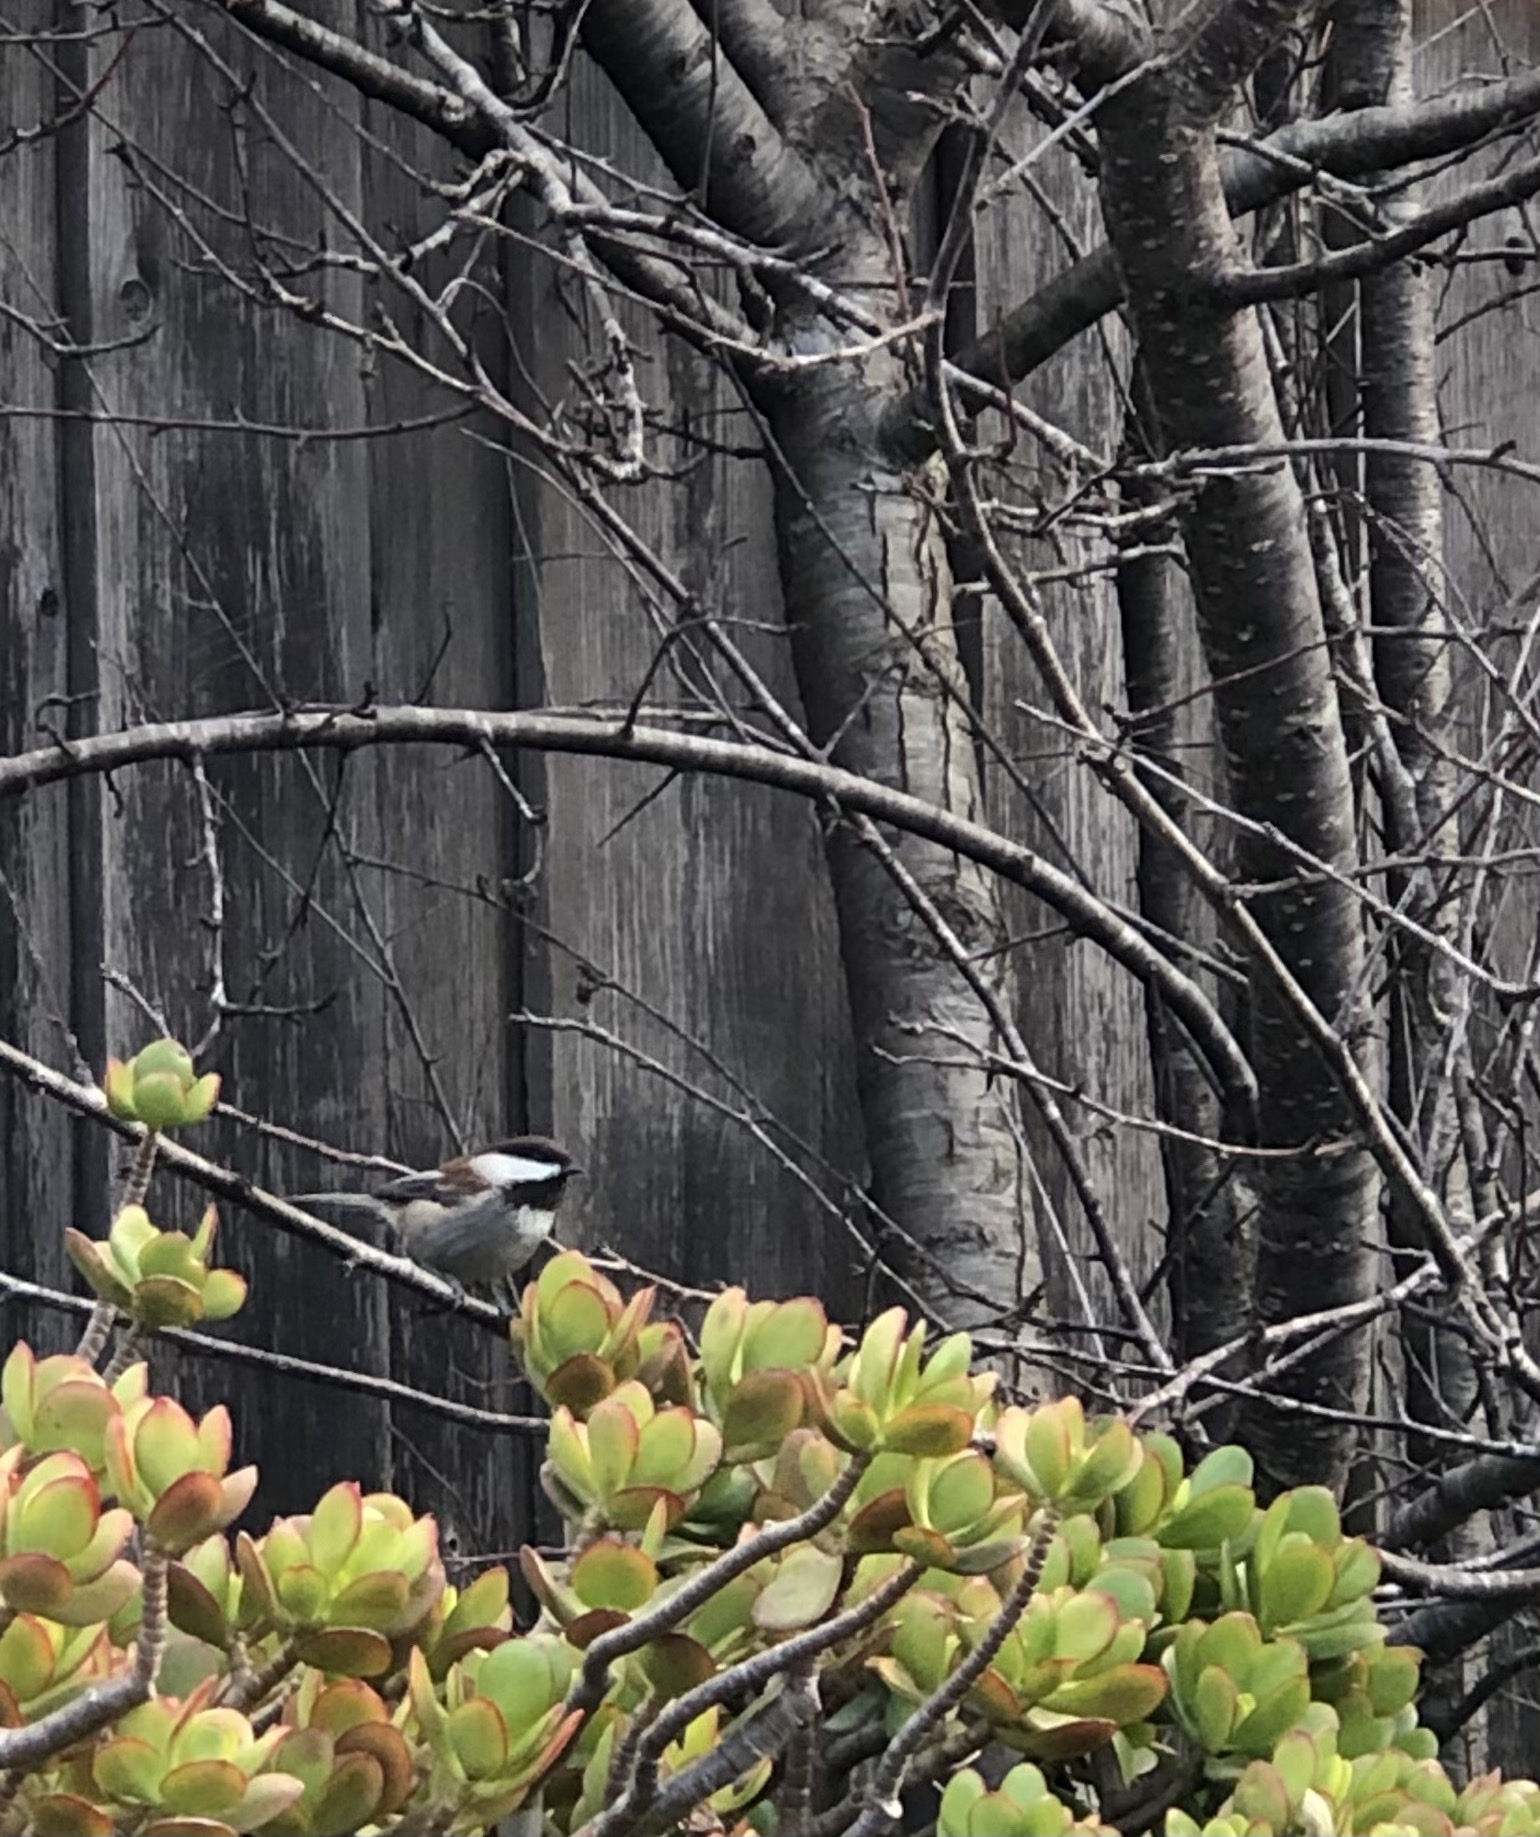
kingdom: Animalia
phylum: Chordata
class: Aves
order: Passeriformes
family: Paridae
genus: Poecile
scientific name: Poecile rufescens
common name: Chestnut-backed chickadee
